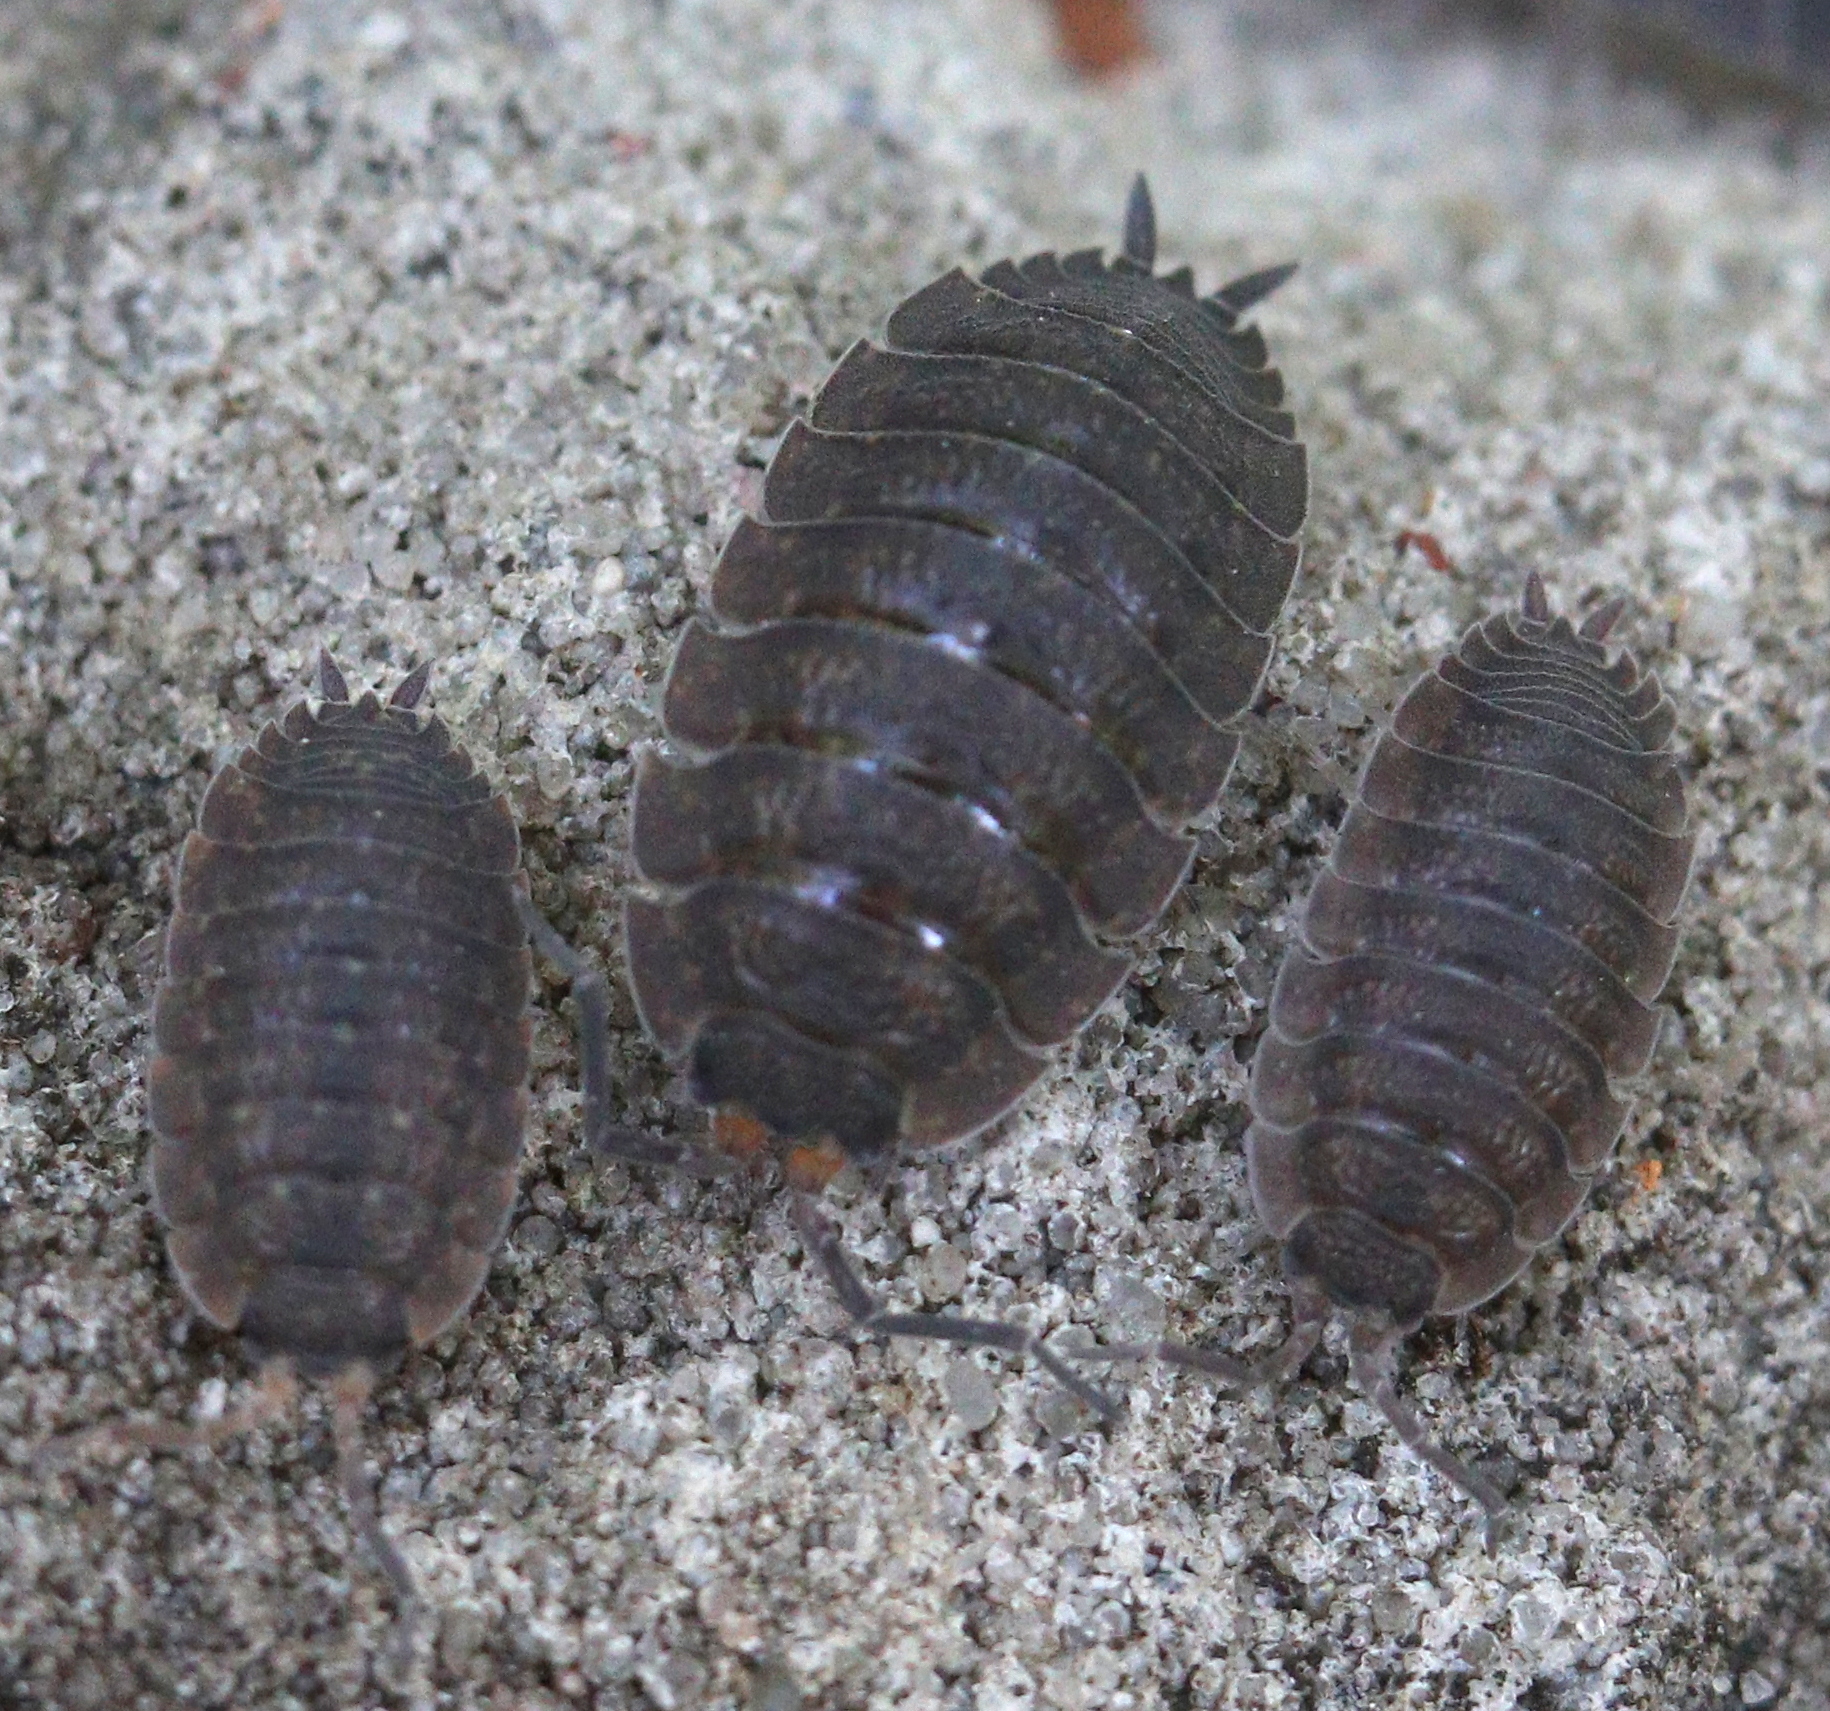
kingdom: Animalia
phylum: Arthropoda
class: Malacostraca
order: Isopoda
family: Porcellionidae
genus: Porcellio
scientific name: Porcellio scaber
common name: Common rough woodlouse
